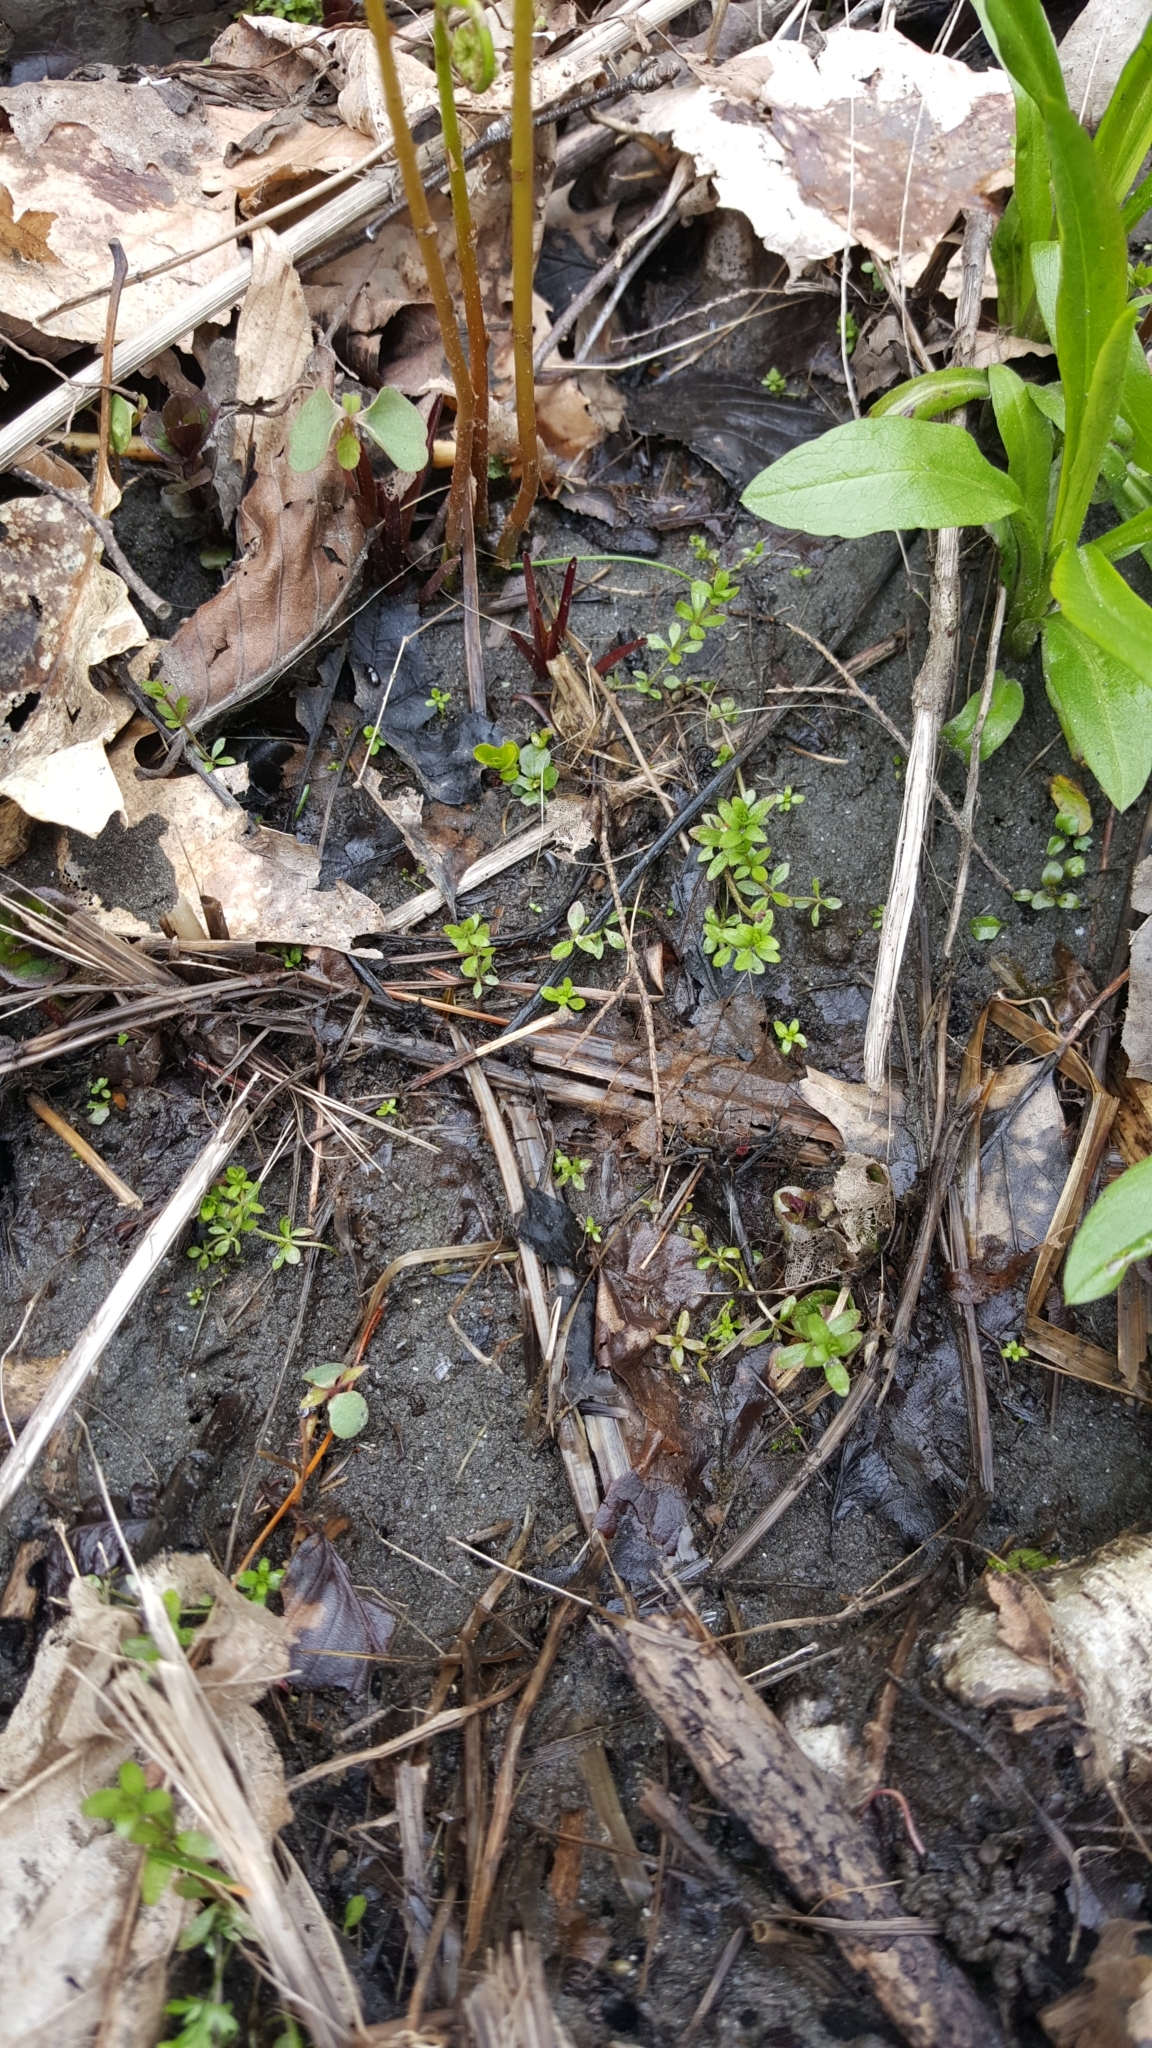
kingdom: Plantae
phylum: Tracheophyta
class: Magnoliopsida
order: Gentianales
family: Rubiaceae
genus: Galium
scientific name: Galium palustre
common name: Common marsh-bedstraw
